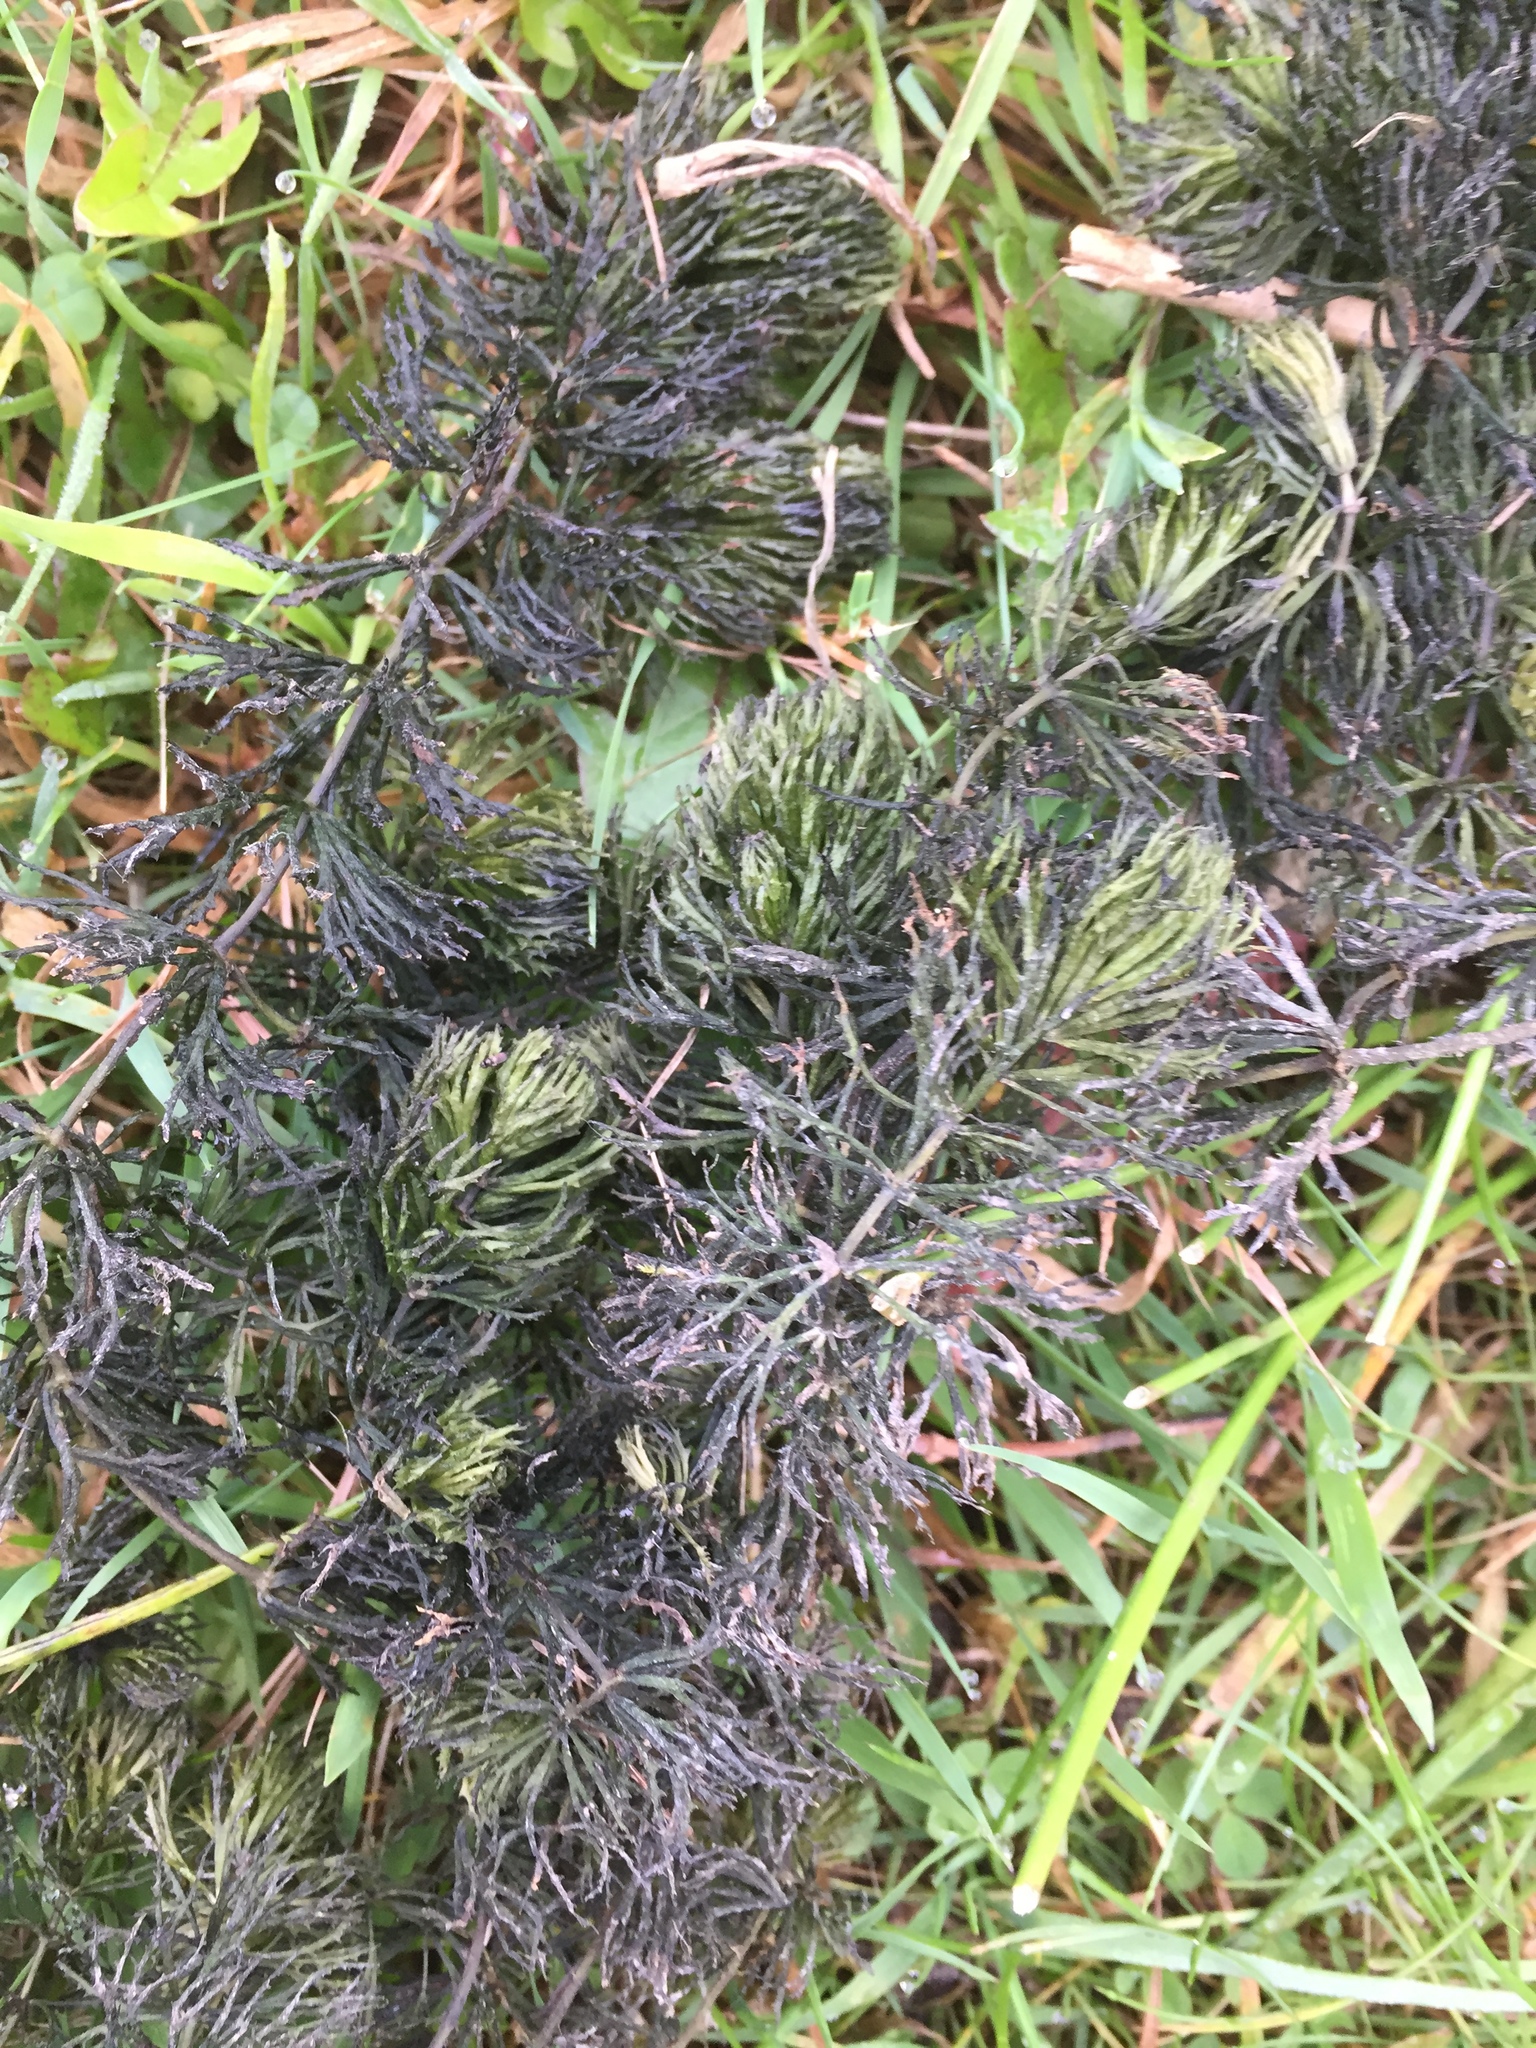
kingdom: Plantae
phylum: Tracheophyta
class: Magnoliopsida
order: Ceratophyllales
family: Ceratophyllaceae
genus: Ceratophyllum
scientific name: Ceratophyllum demersum
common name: Rigid hornwort
